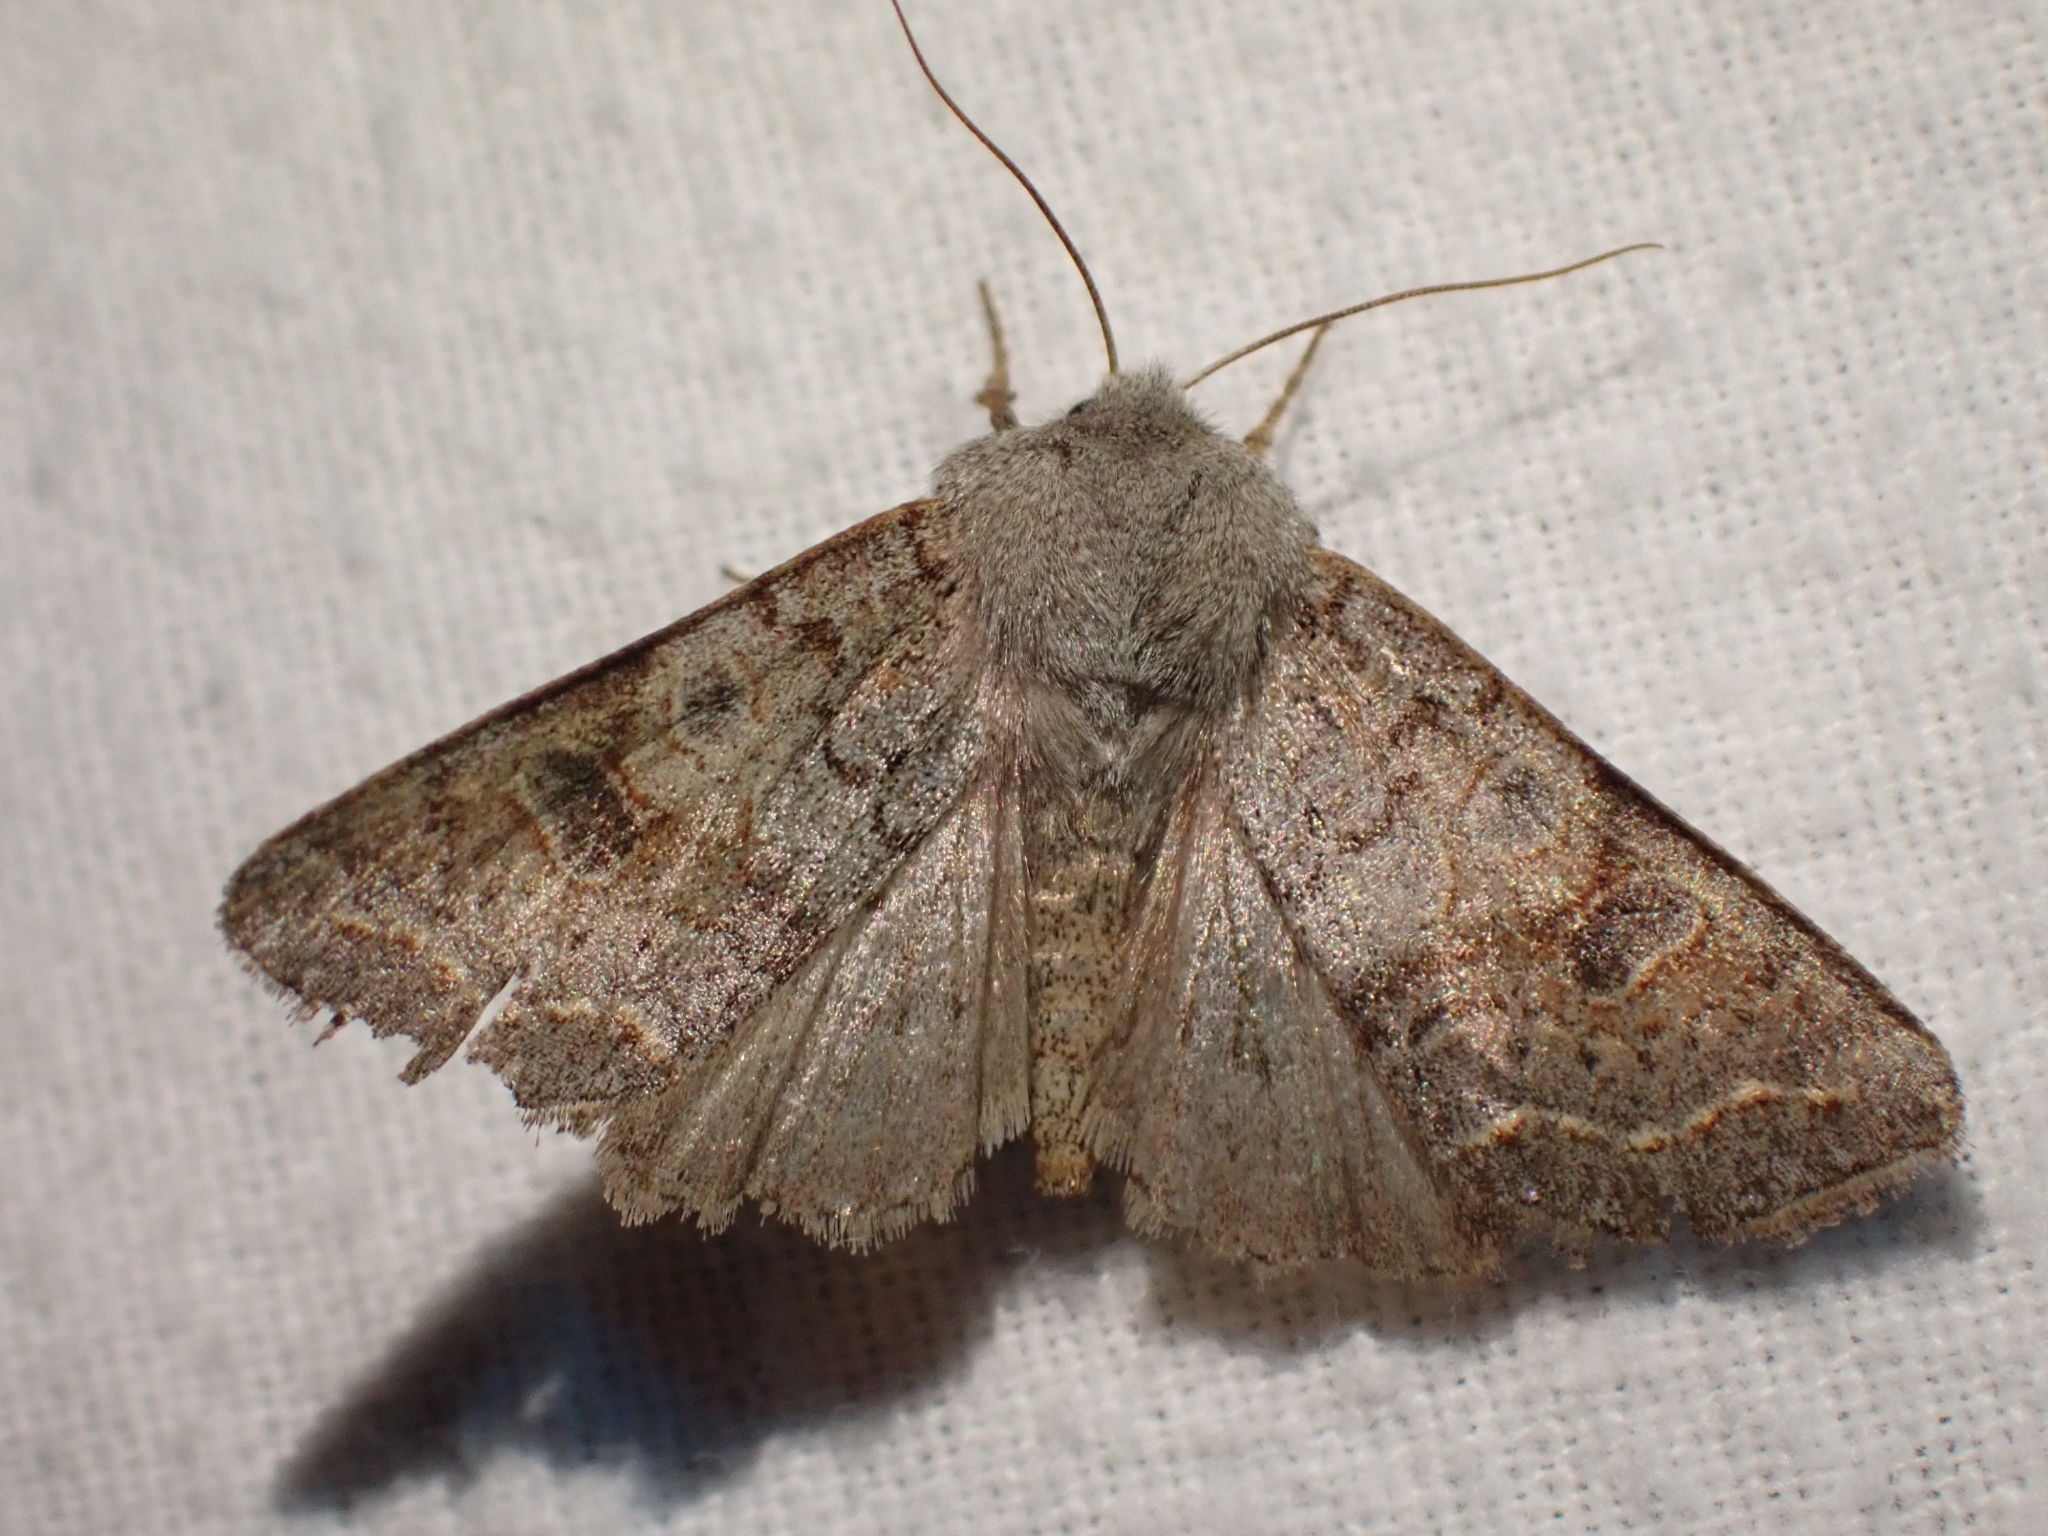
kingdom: Animalia
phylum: Arthropoda
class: Insecta
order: Lepidoptera
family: Noctuidae
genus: Orthosia
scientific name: Orthosia revicta
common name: Rusty whitesided caterpillar
